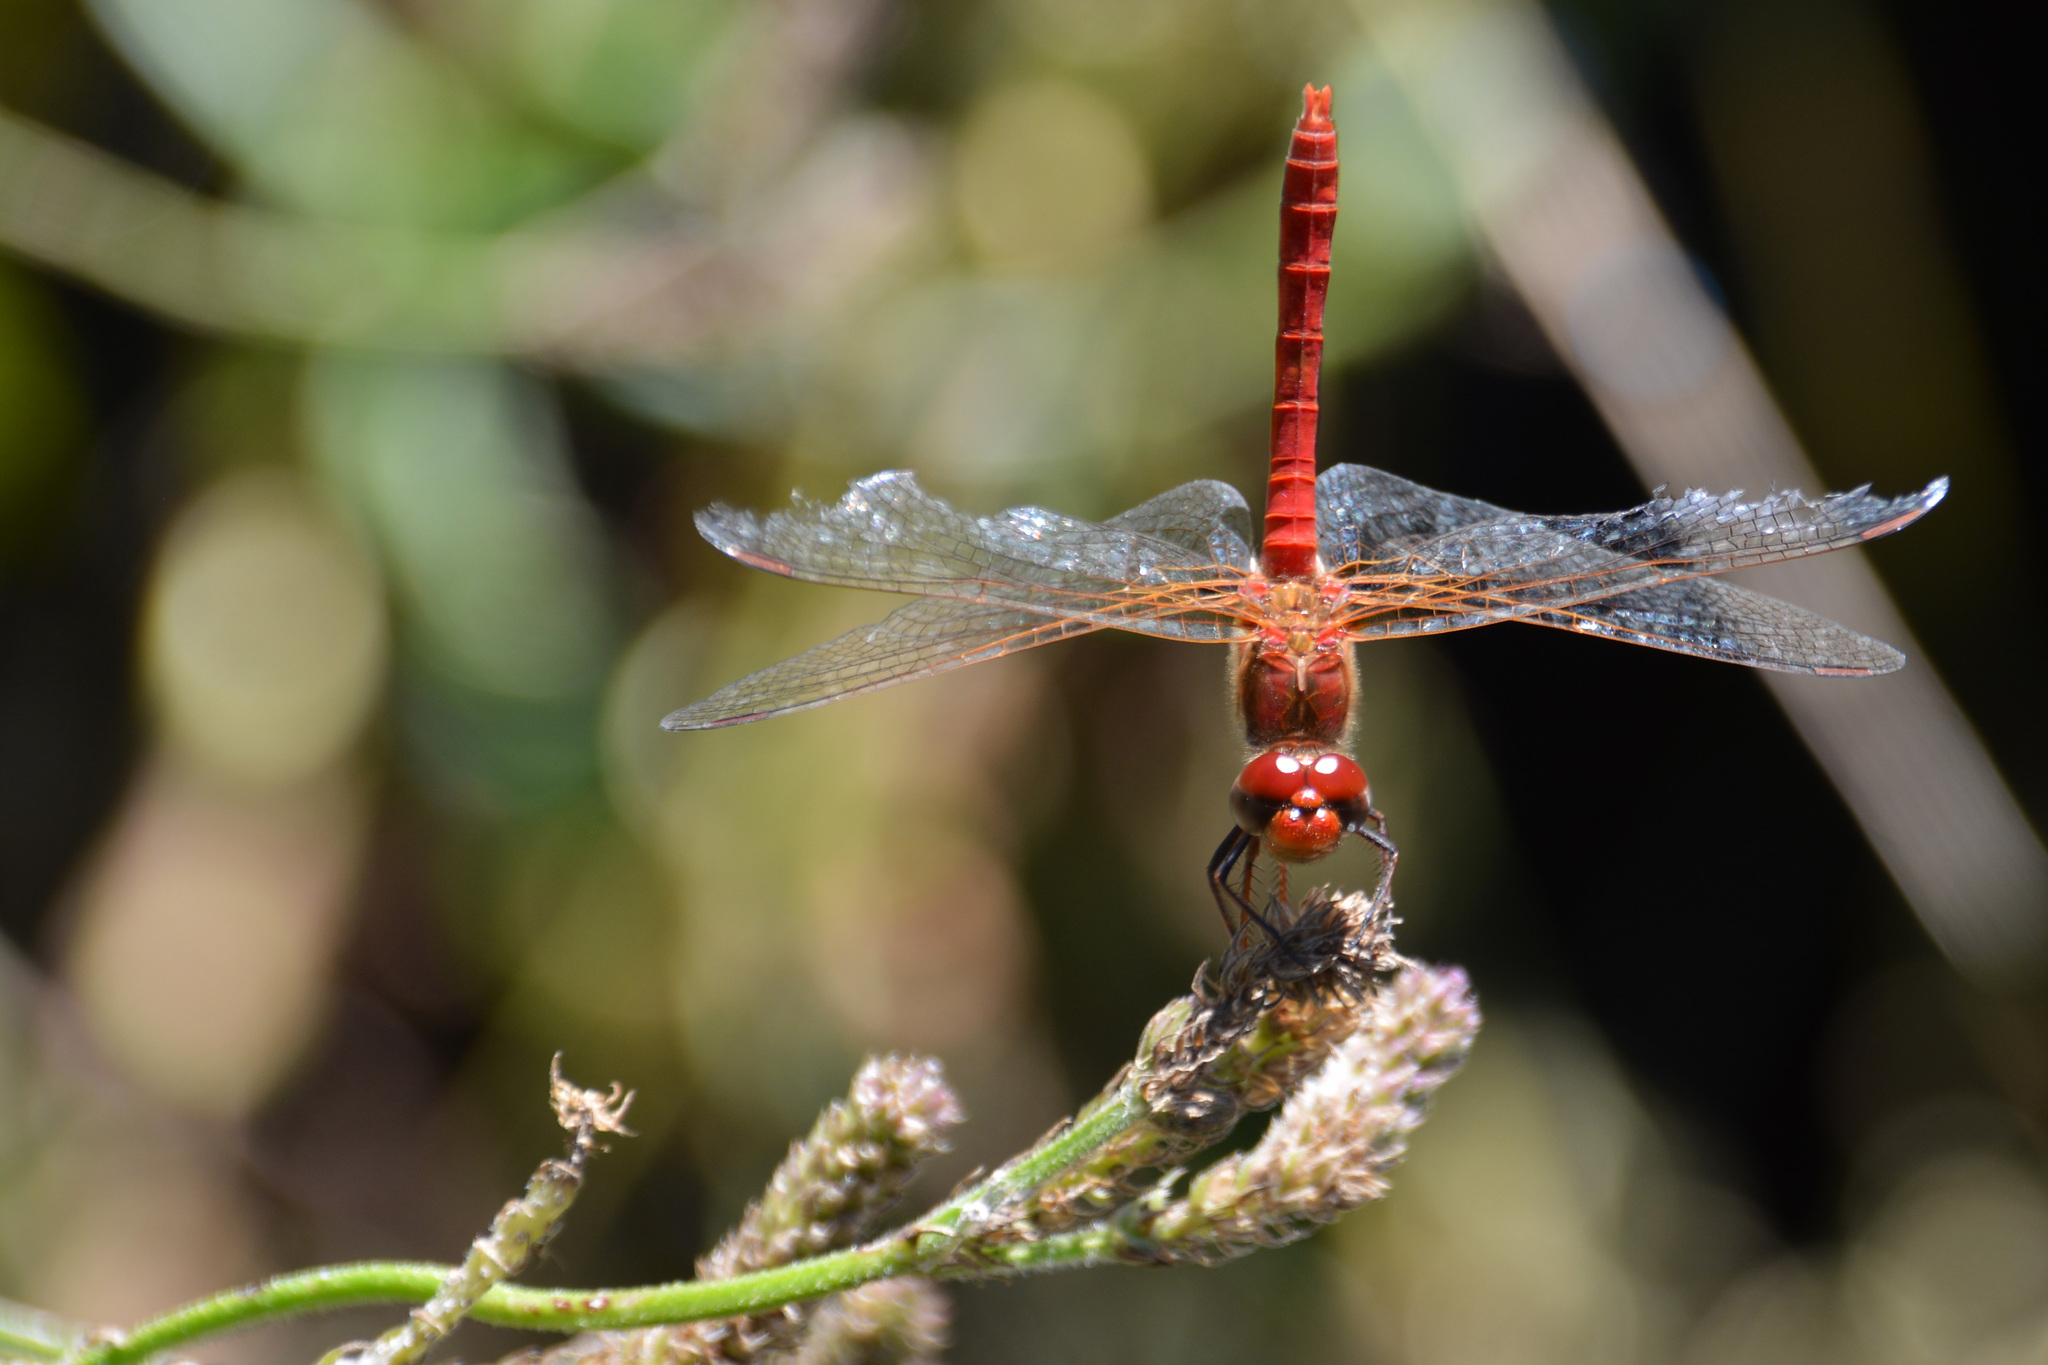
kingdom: Animalia
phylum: Arthropoda
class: Insecta
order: Odonata
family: Libellulidae
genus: Sympetrum
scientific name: Sympetrum gilvum
